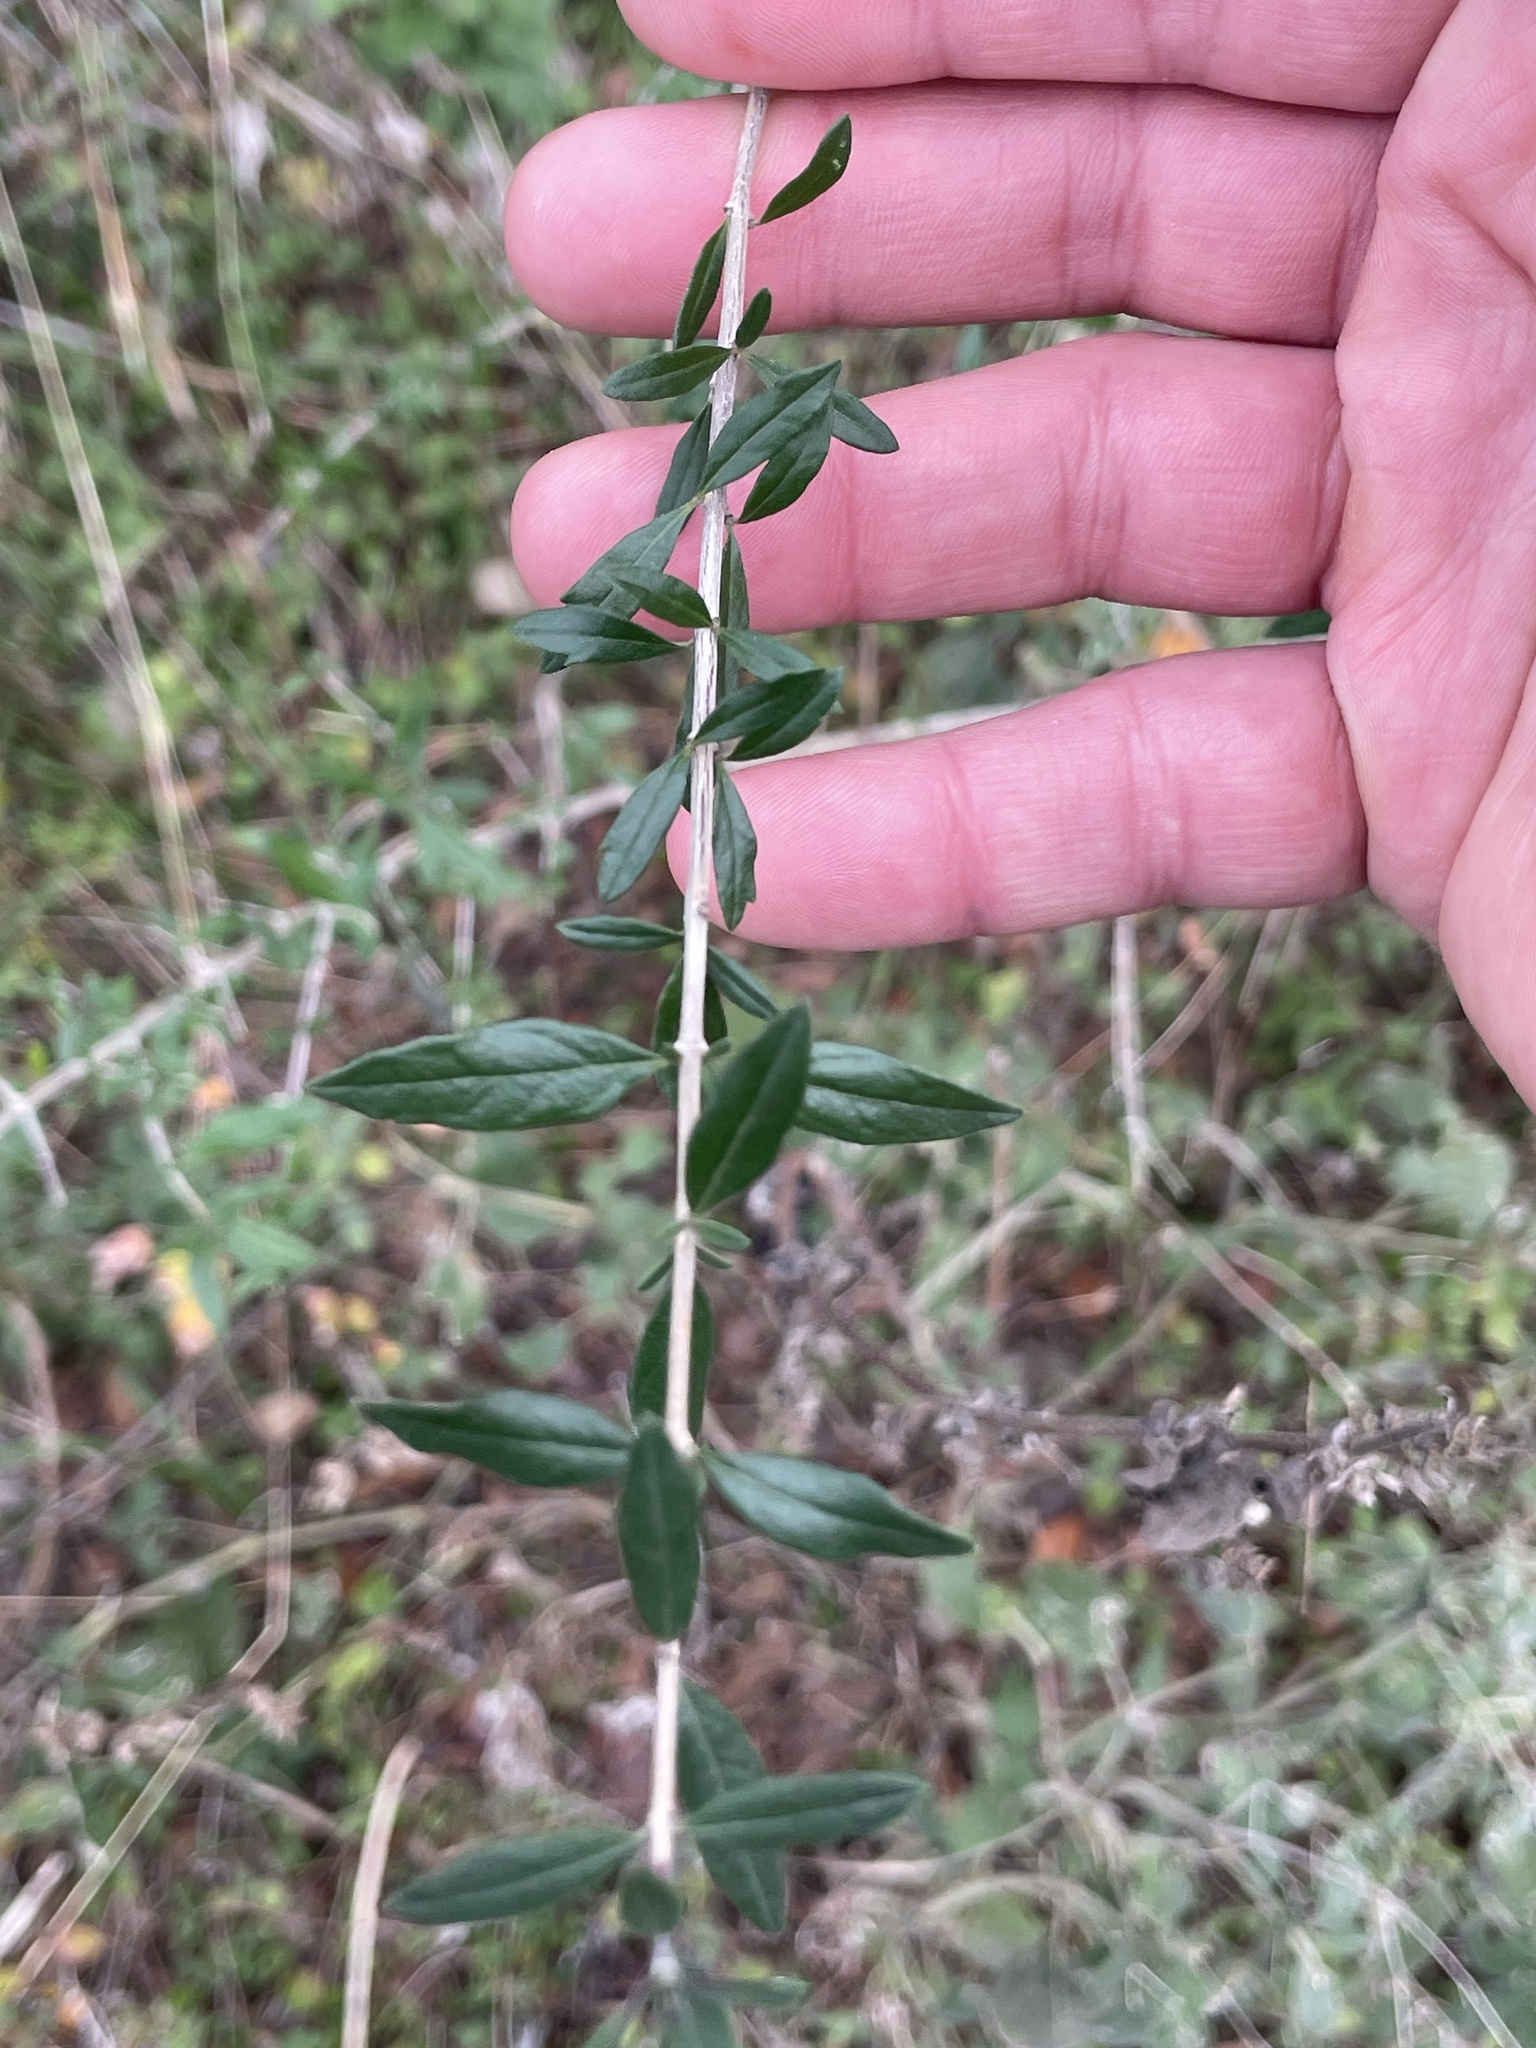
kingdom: Plantae
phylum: Tracheophyta
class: Magnoliopsida
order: Lamiales
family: Verbenaceae
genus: Aloysia
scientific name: Aloysia gratissima
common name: Common bee-brush
